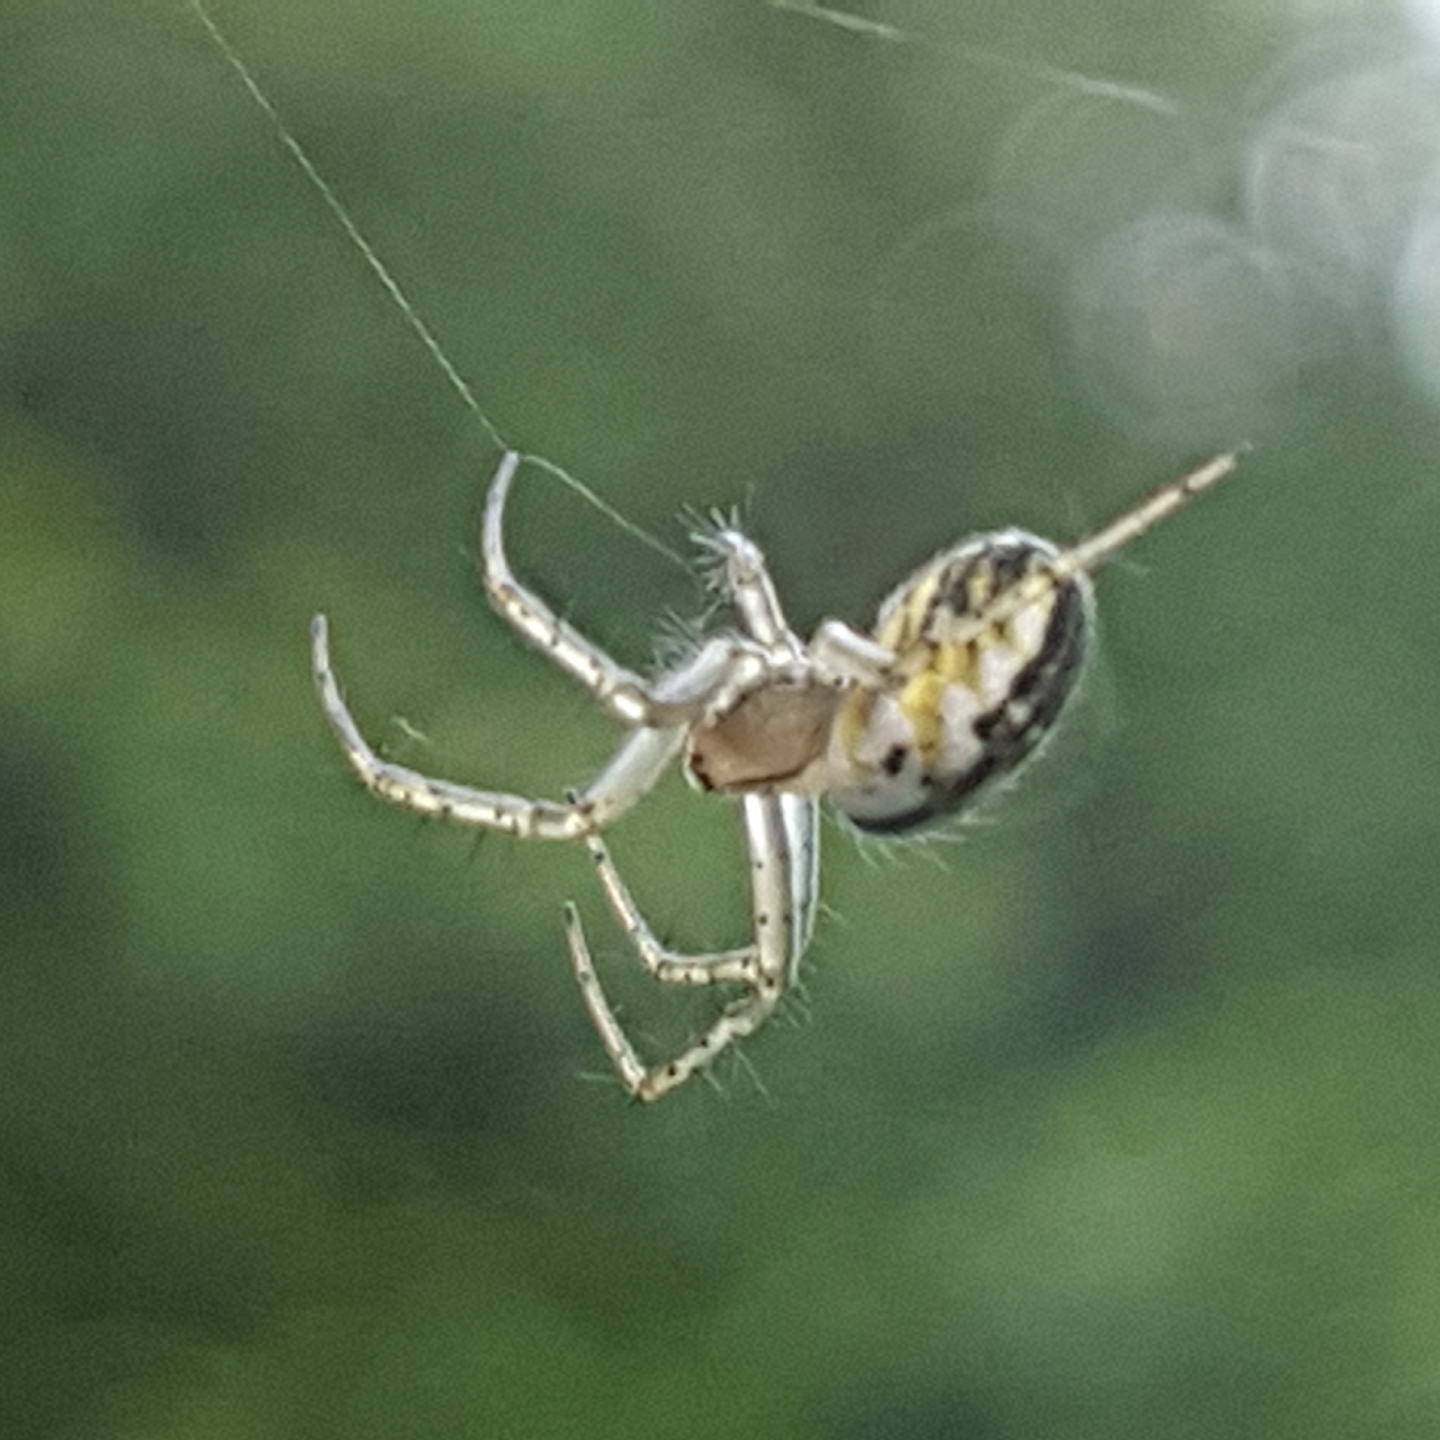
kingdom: Animalia
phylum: Arthropoda
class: Arachnida
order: Araneae
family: Araneidae
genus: Mangora
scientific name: Mangora acalypha
